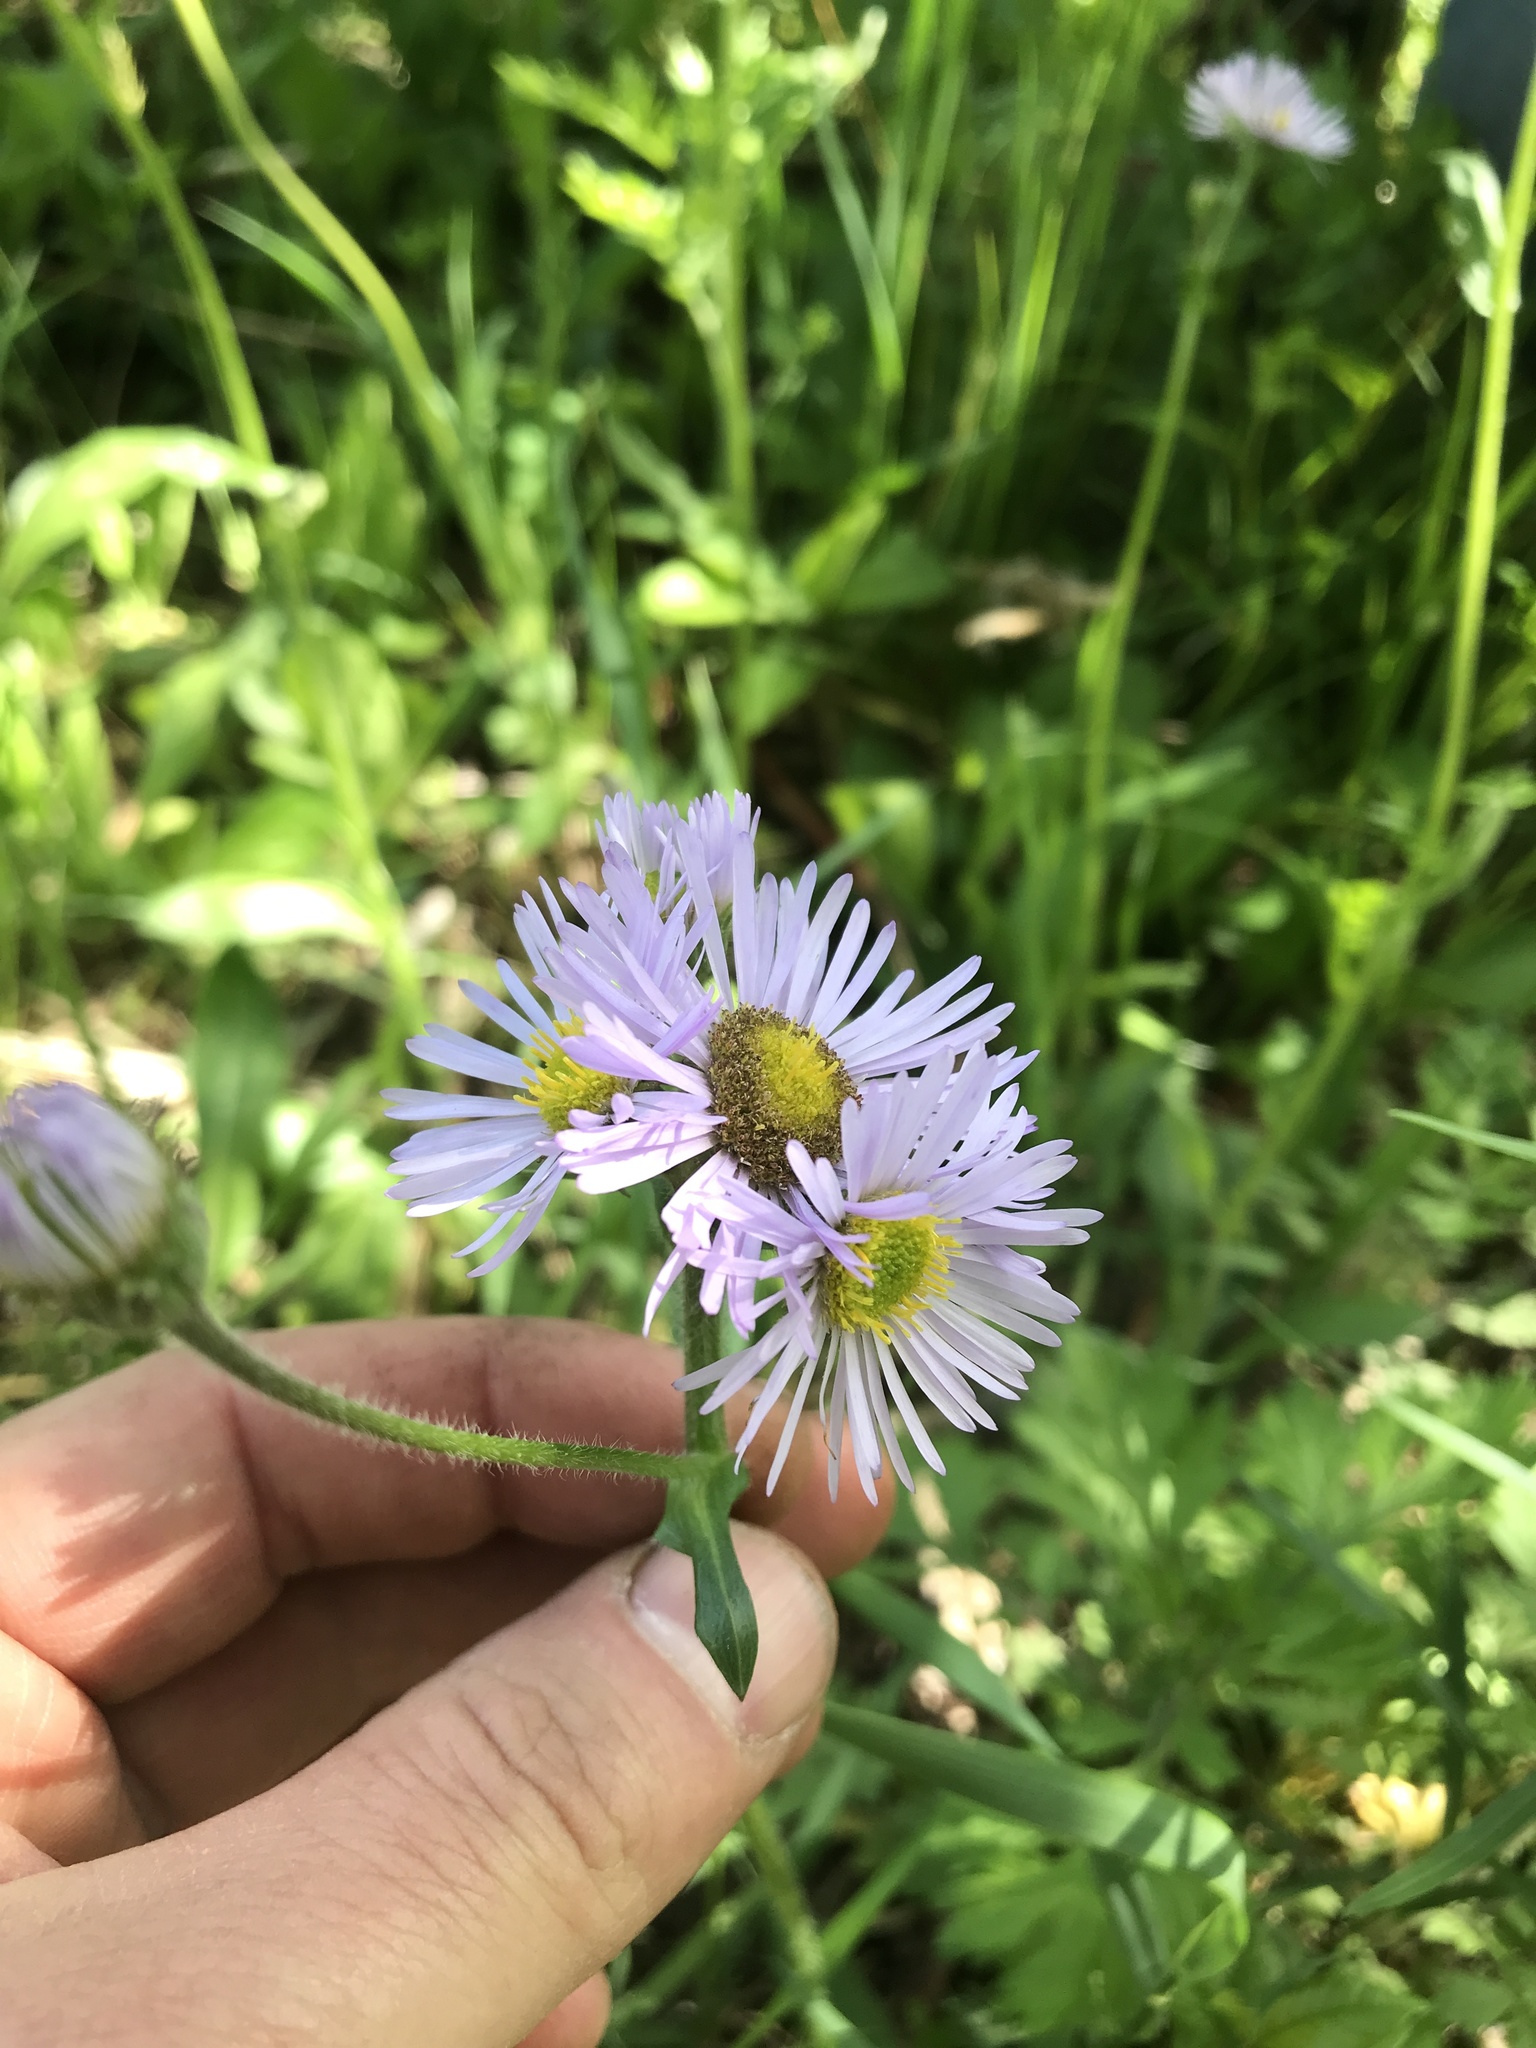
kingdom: Plantae
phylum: Tracheophyta
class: Magnoliopsida
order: Asterales
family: Asteraceae
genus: Erigeron
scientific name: Erigeron pulchellus
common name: Hairy fleabane
